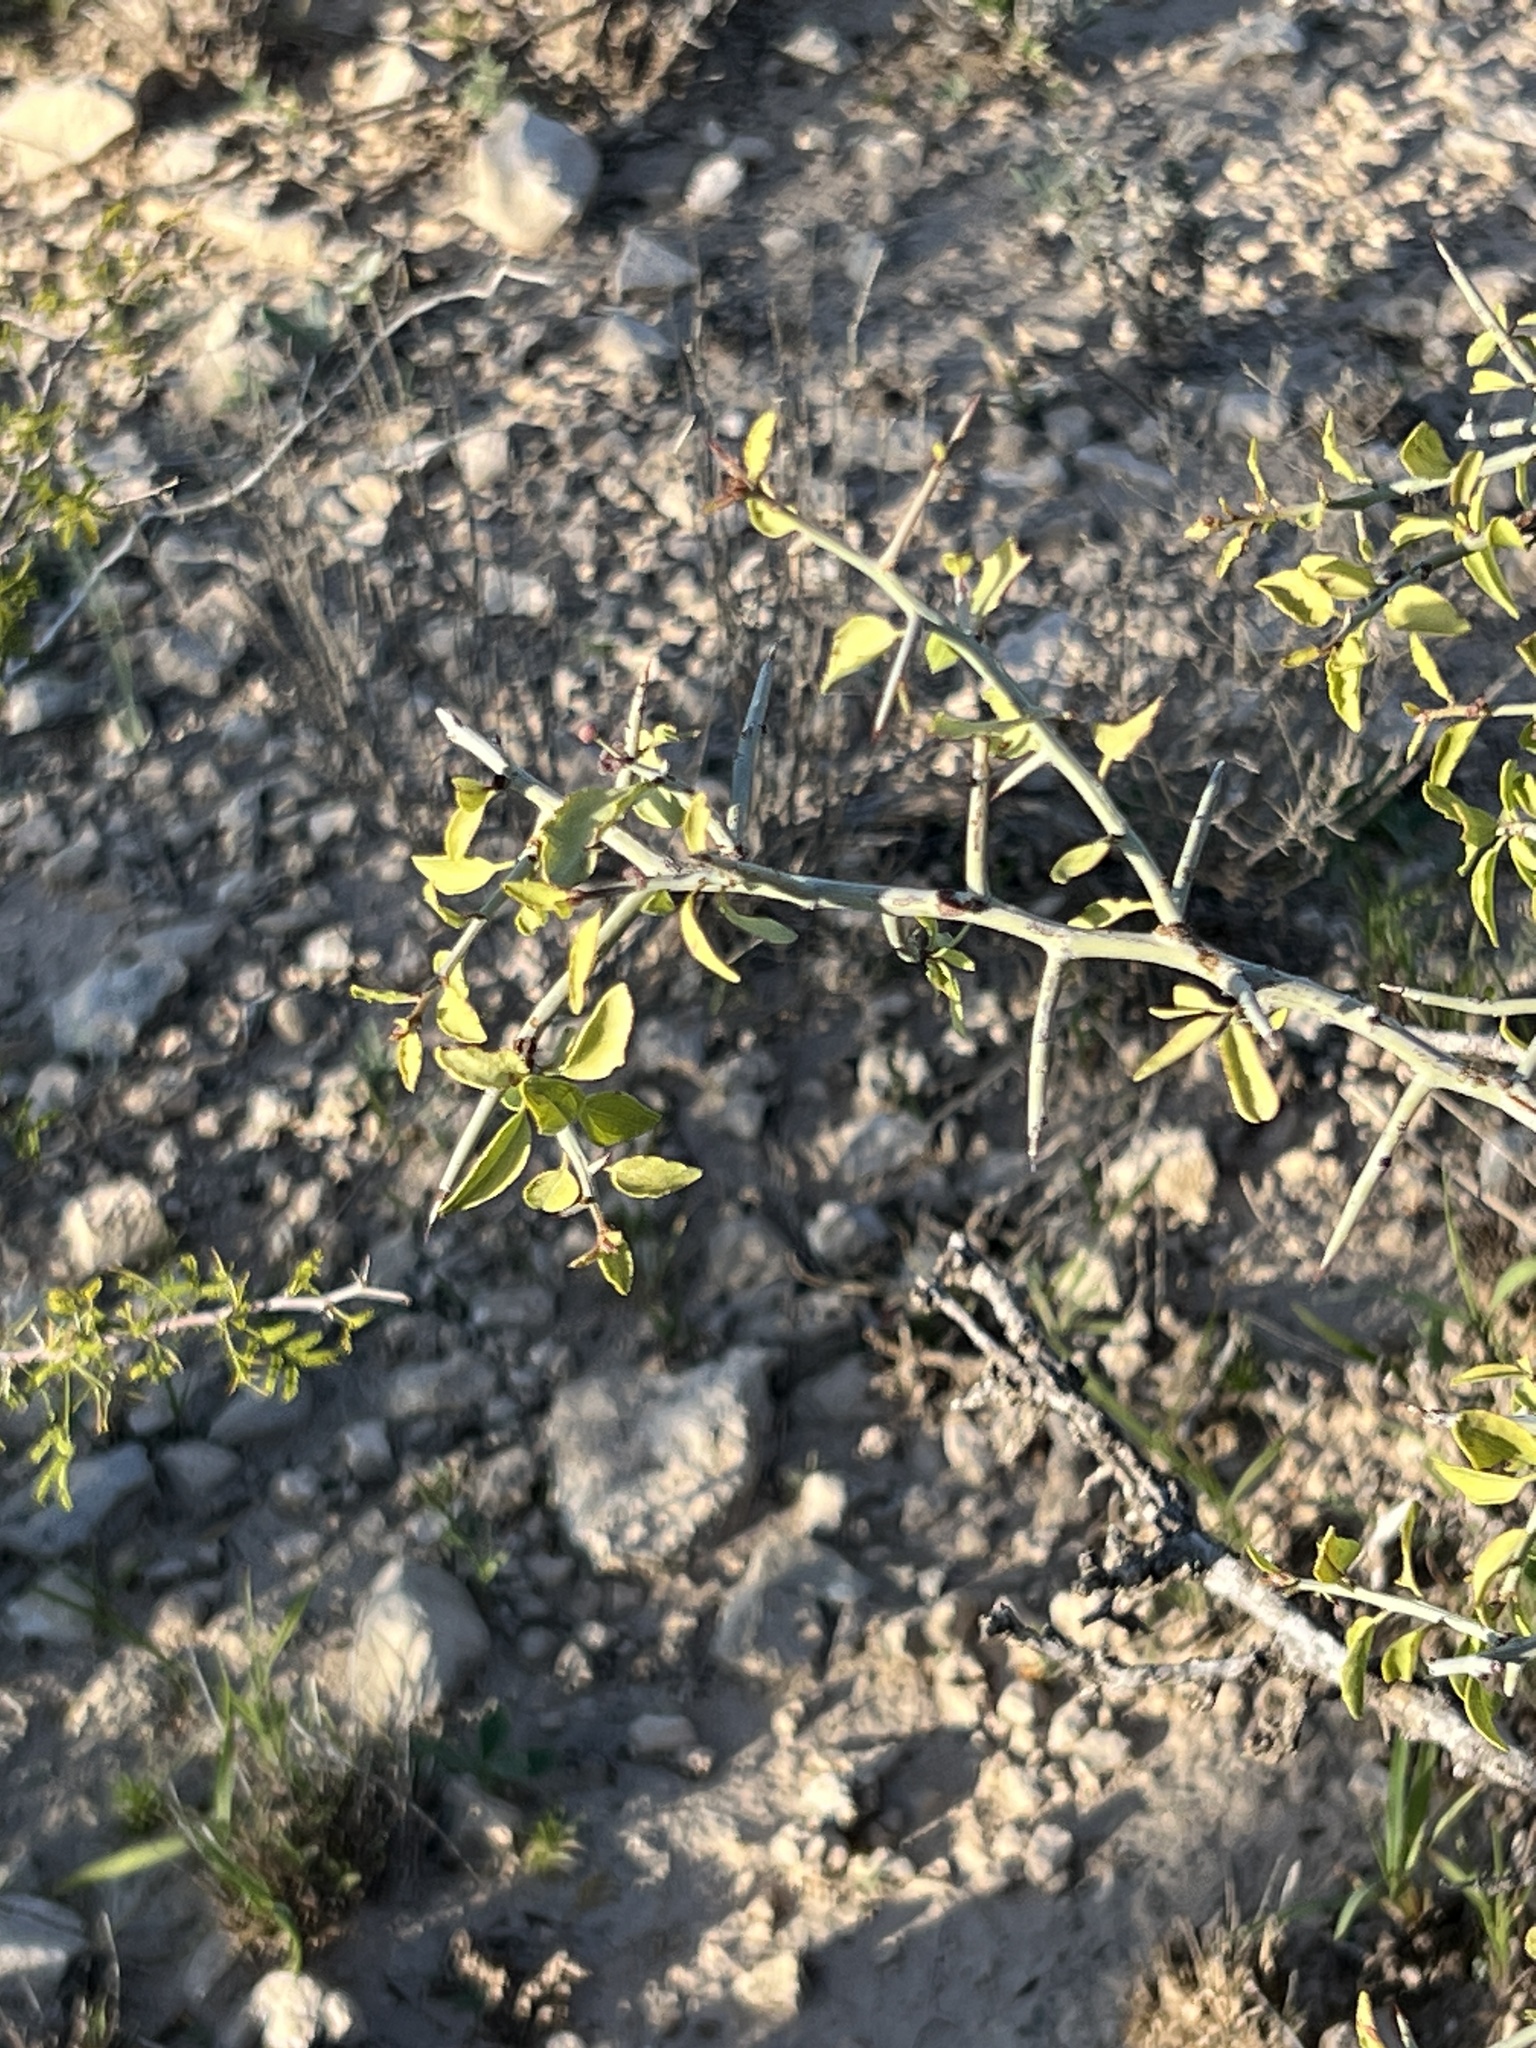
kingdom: Plantae
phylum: Tracheophyta
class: Magnoliopsida
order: Rosales
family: Rhamnaceae
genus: Sarcomphalus
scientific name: Sarcomphalus obtusifolius
